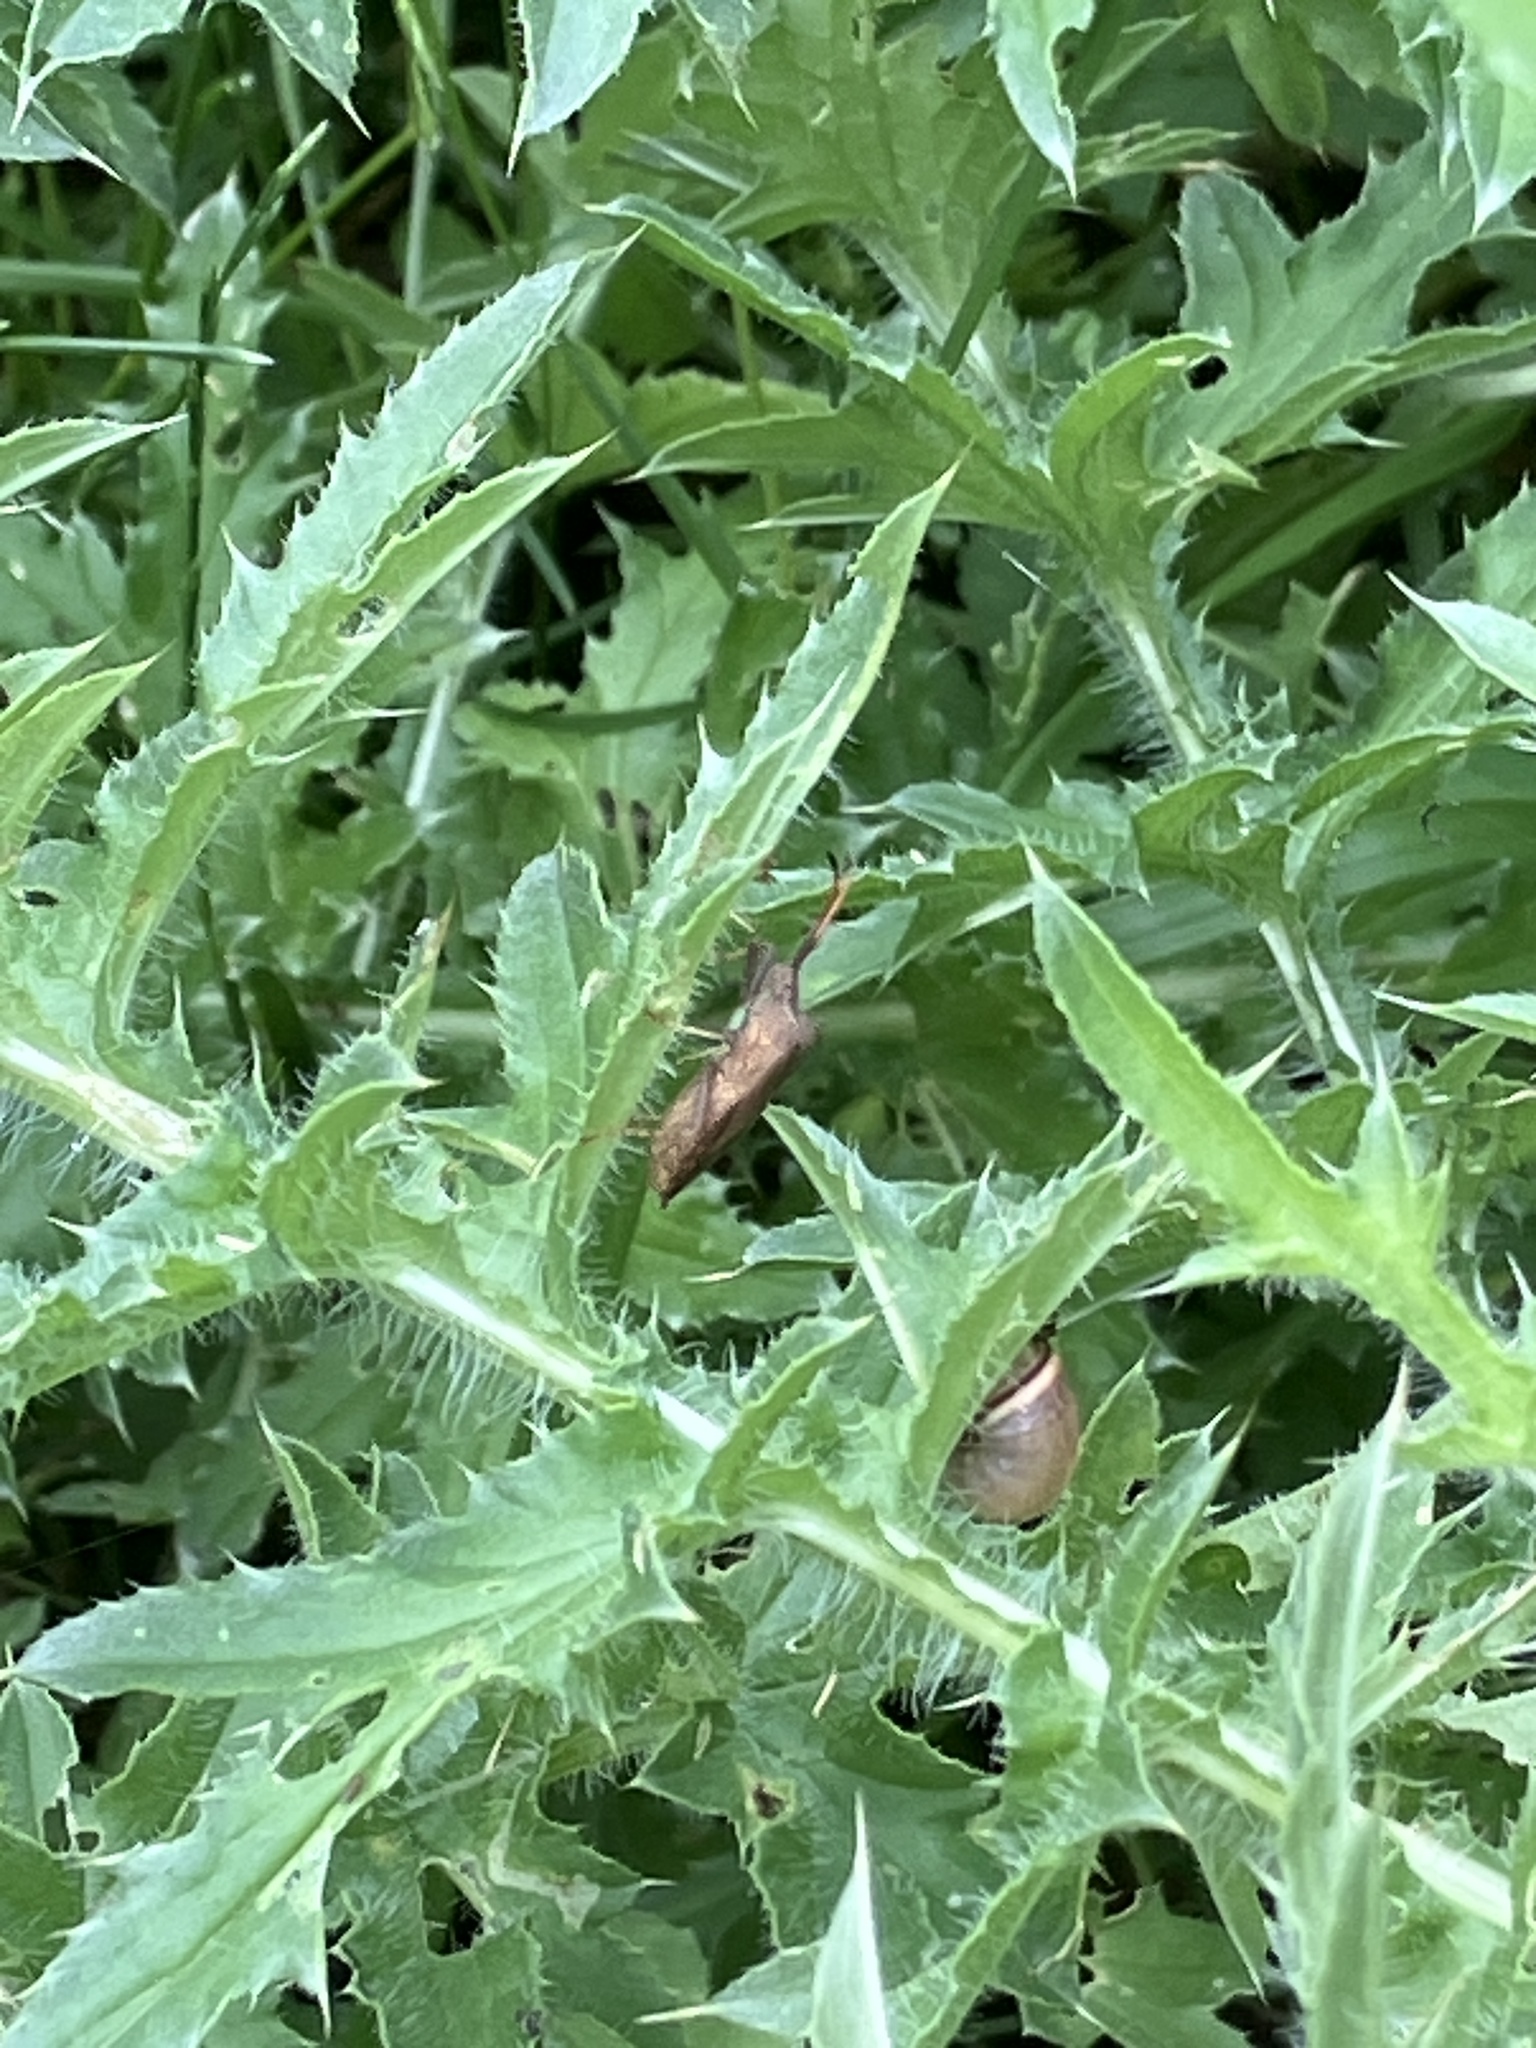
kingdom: Animalia
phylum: Arthropoda
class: Insecta
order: Hemiptera
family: Coreidae
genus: Coreus
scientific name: Coreus marginatus
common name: Dock bug
